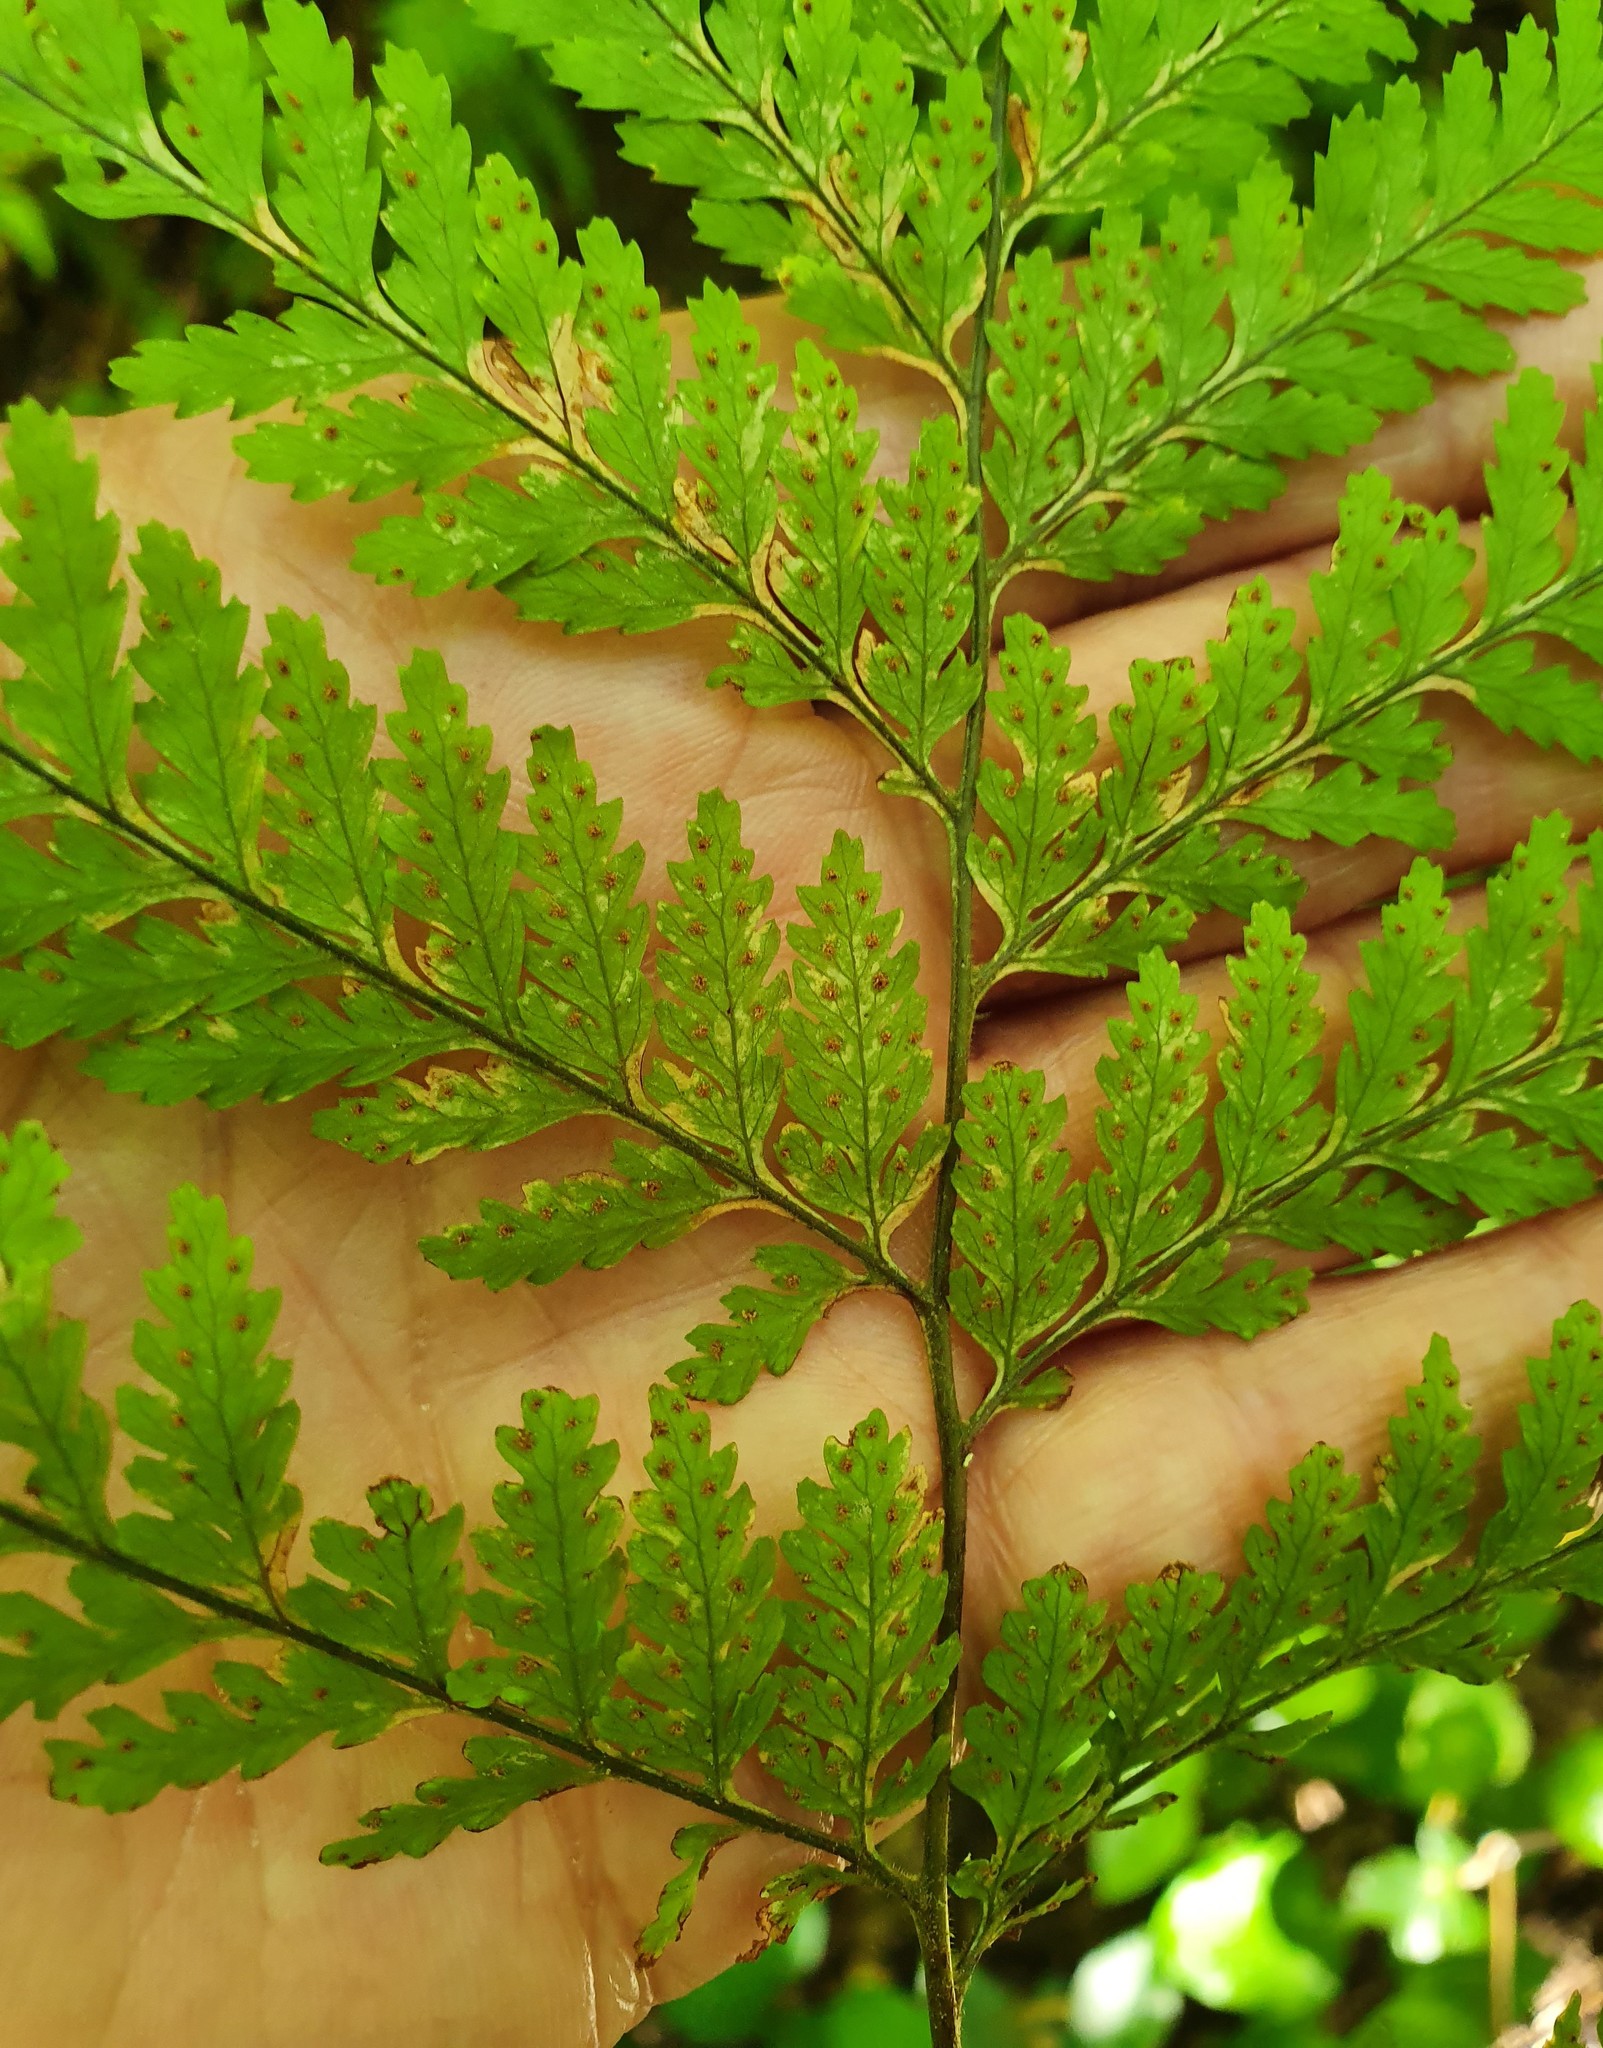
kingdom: Plantae
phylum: Tracheophyta
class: Polypodiopsida
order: Polypodiales
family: Dryopteridaceae
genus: Parapolystichum
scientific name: Parapolystichum microsorum
